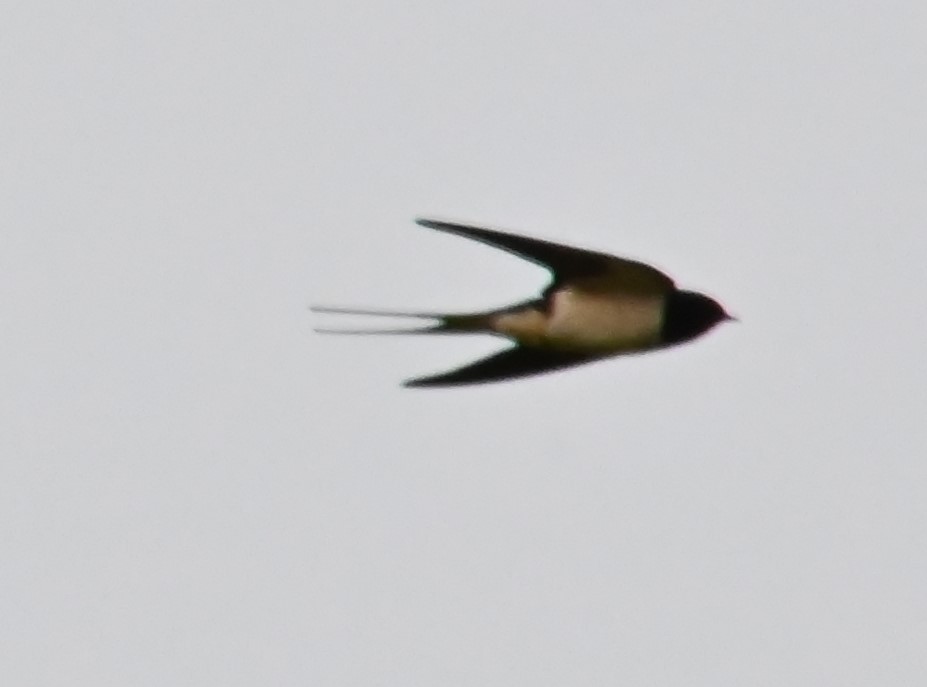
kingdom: Animalia
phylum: Chordata
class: Aves
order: Passeriformes
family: Hirundinidae
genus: Hirundo
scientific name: Hirundo rustica
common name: Barn swallow
